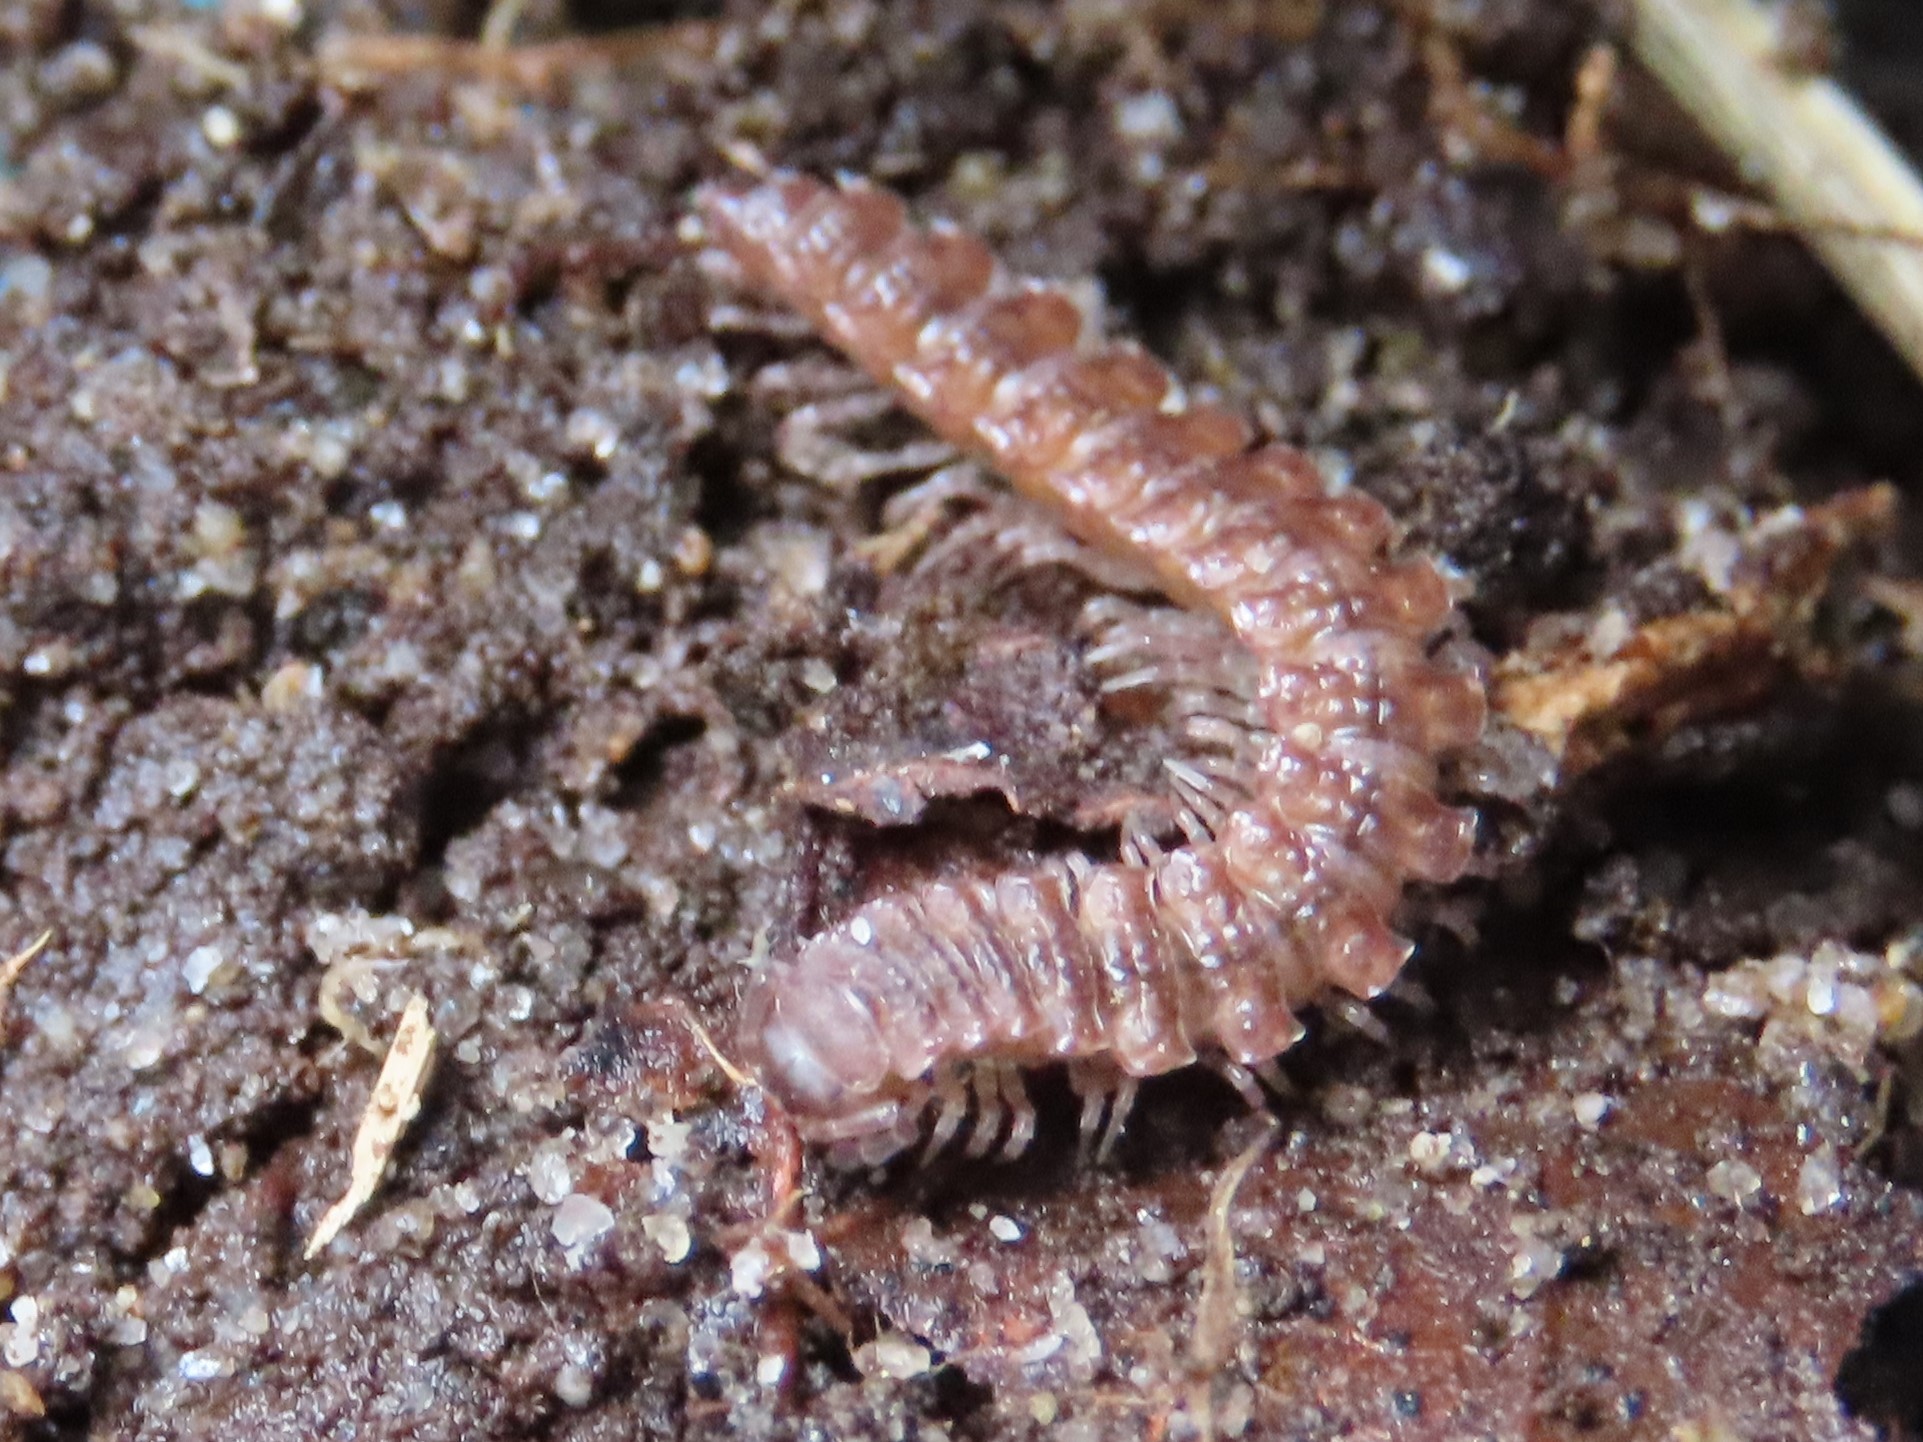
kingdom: Animalia
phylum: Arthropoda
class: Diplopoda
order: Polydesmida
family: Polydesmidae
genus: Polydesmus
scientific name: Polydesmus angustus
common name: Flat millipede
